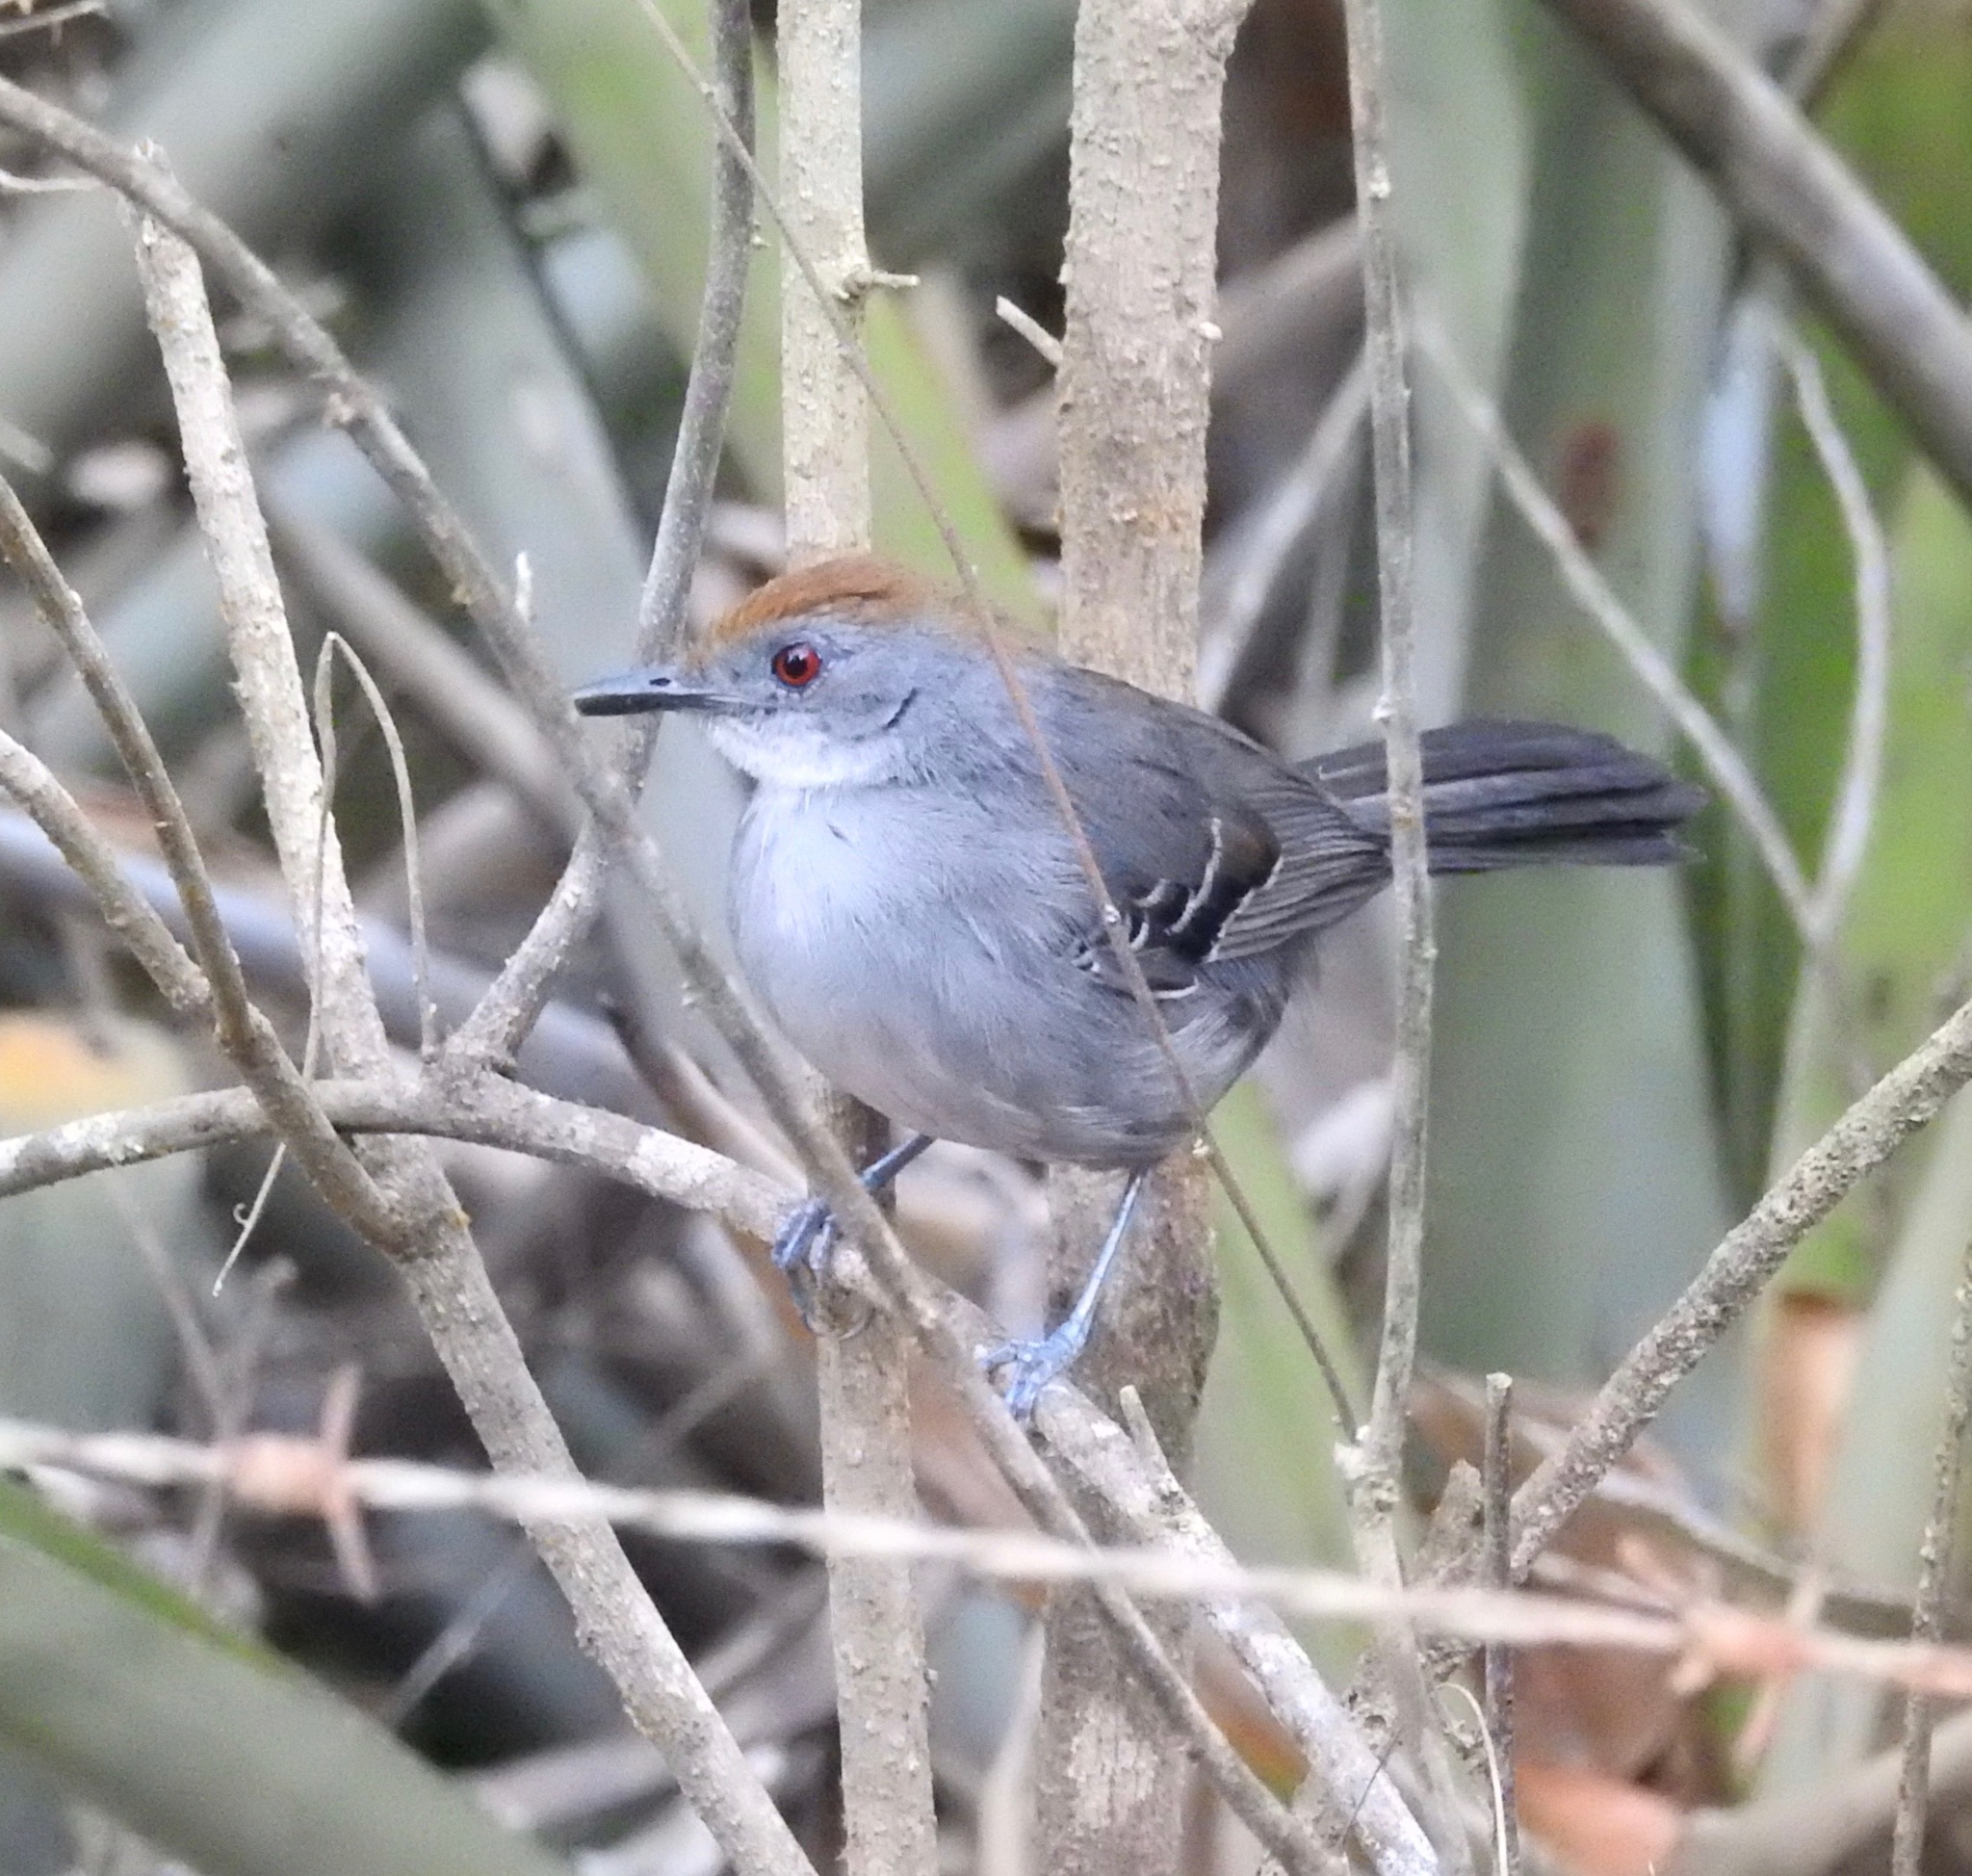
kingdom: Animalia
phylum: Chordata
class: Aves
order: Passeriformes
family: Thamnophilidae
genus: Rhopornis
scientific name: Rhopornis ardesiacus
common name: Slender antbird
